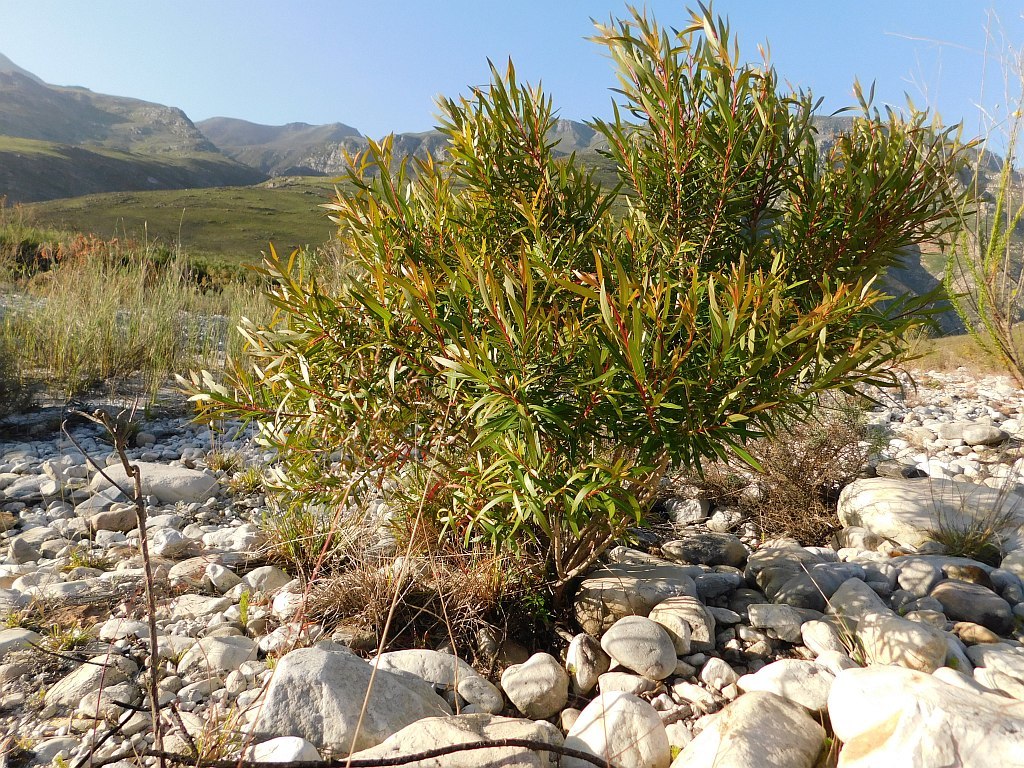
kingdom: Plantae
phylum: Tracheophyta
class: Magnoliopsida
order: Myrtales
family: Myrtaceae
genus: Callistemon
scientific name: Callistemon lanceolatus
